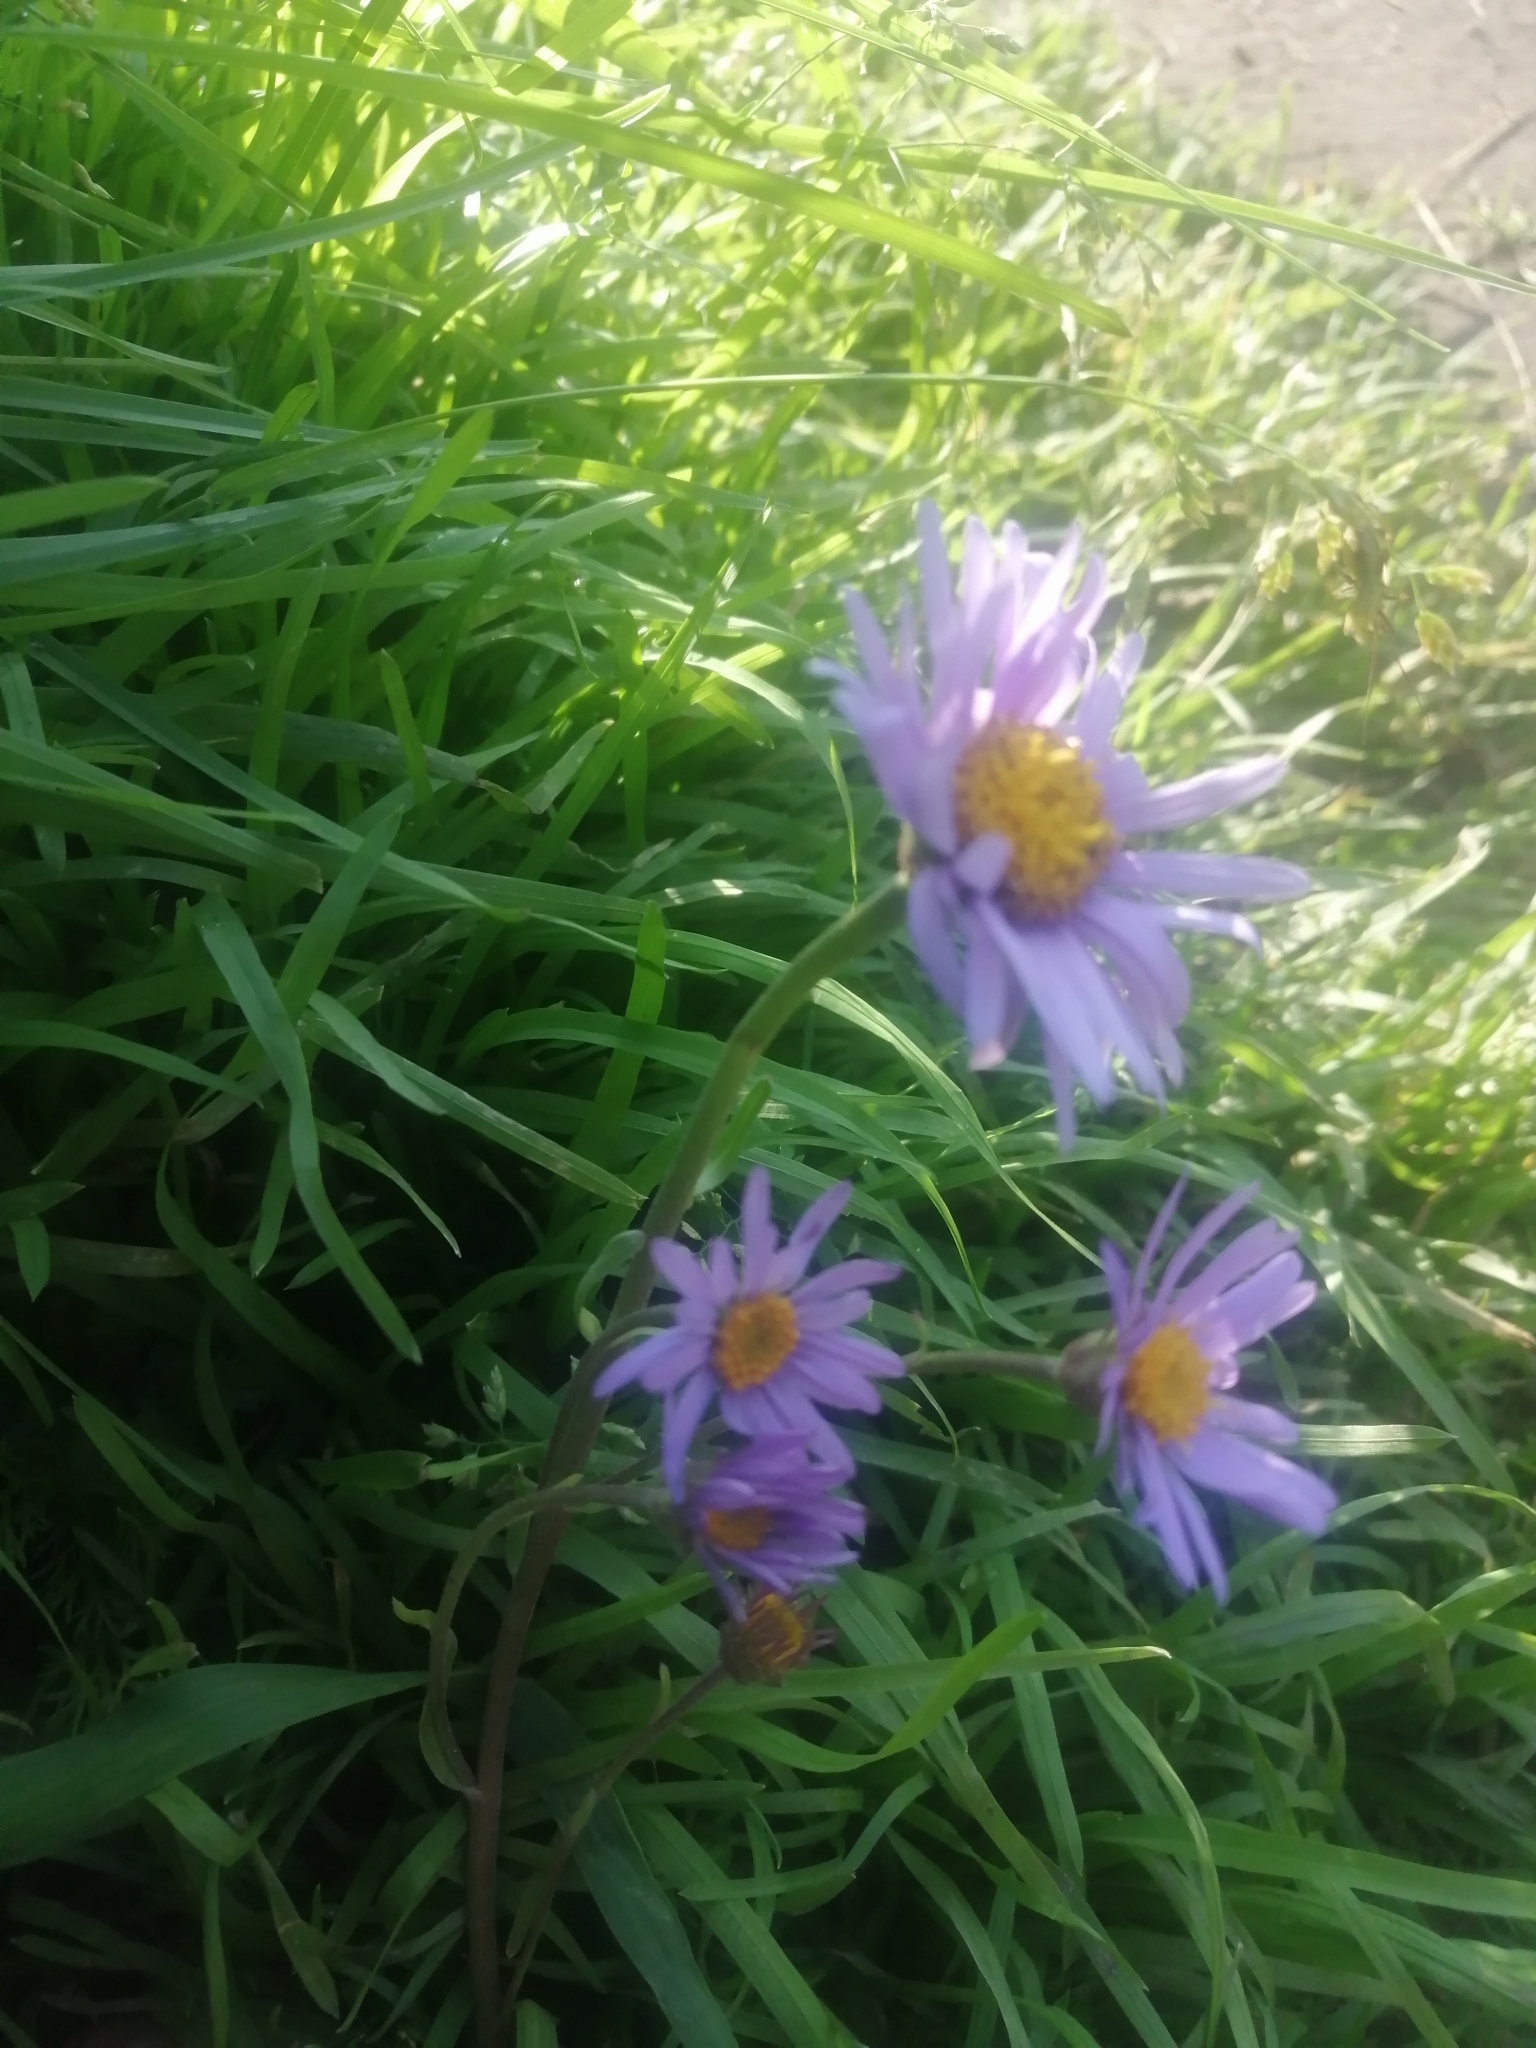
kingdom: Plantae
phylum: Tracheophyta
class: Magnoliopsida
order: Asterales
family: Asteraceae
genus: Aster
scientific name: Aster alpinus
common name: Alpine aster
